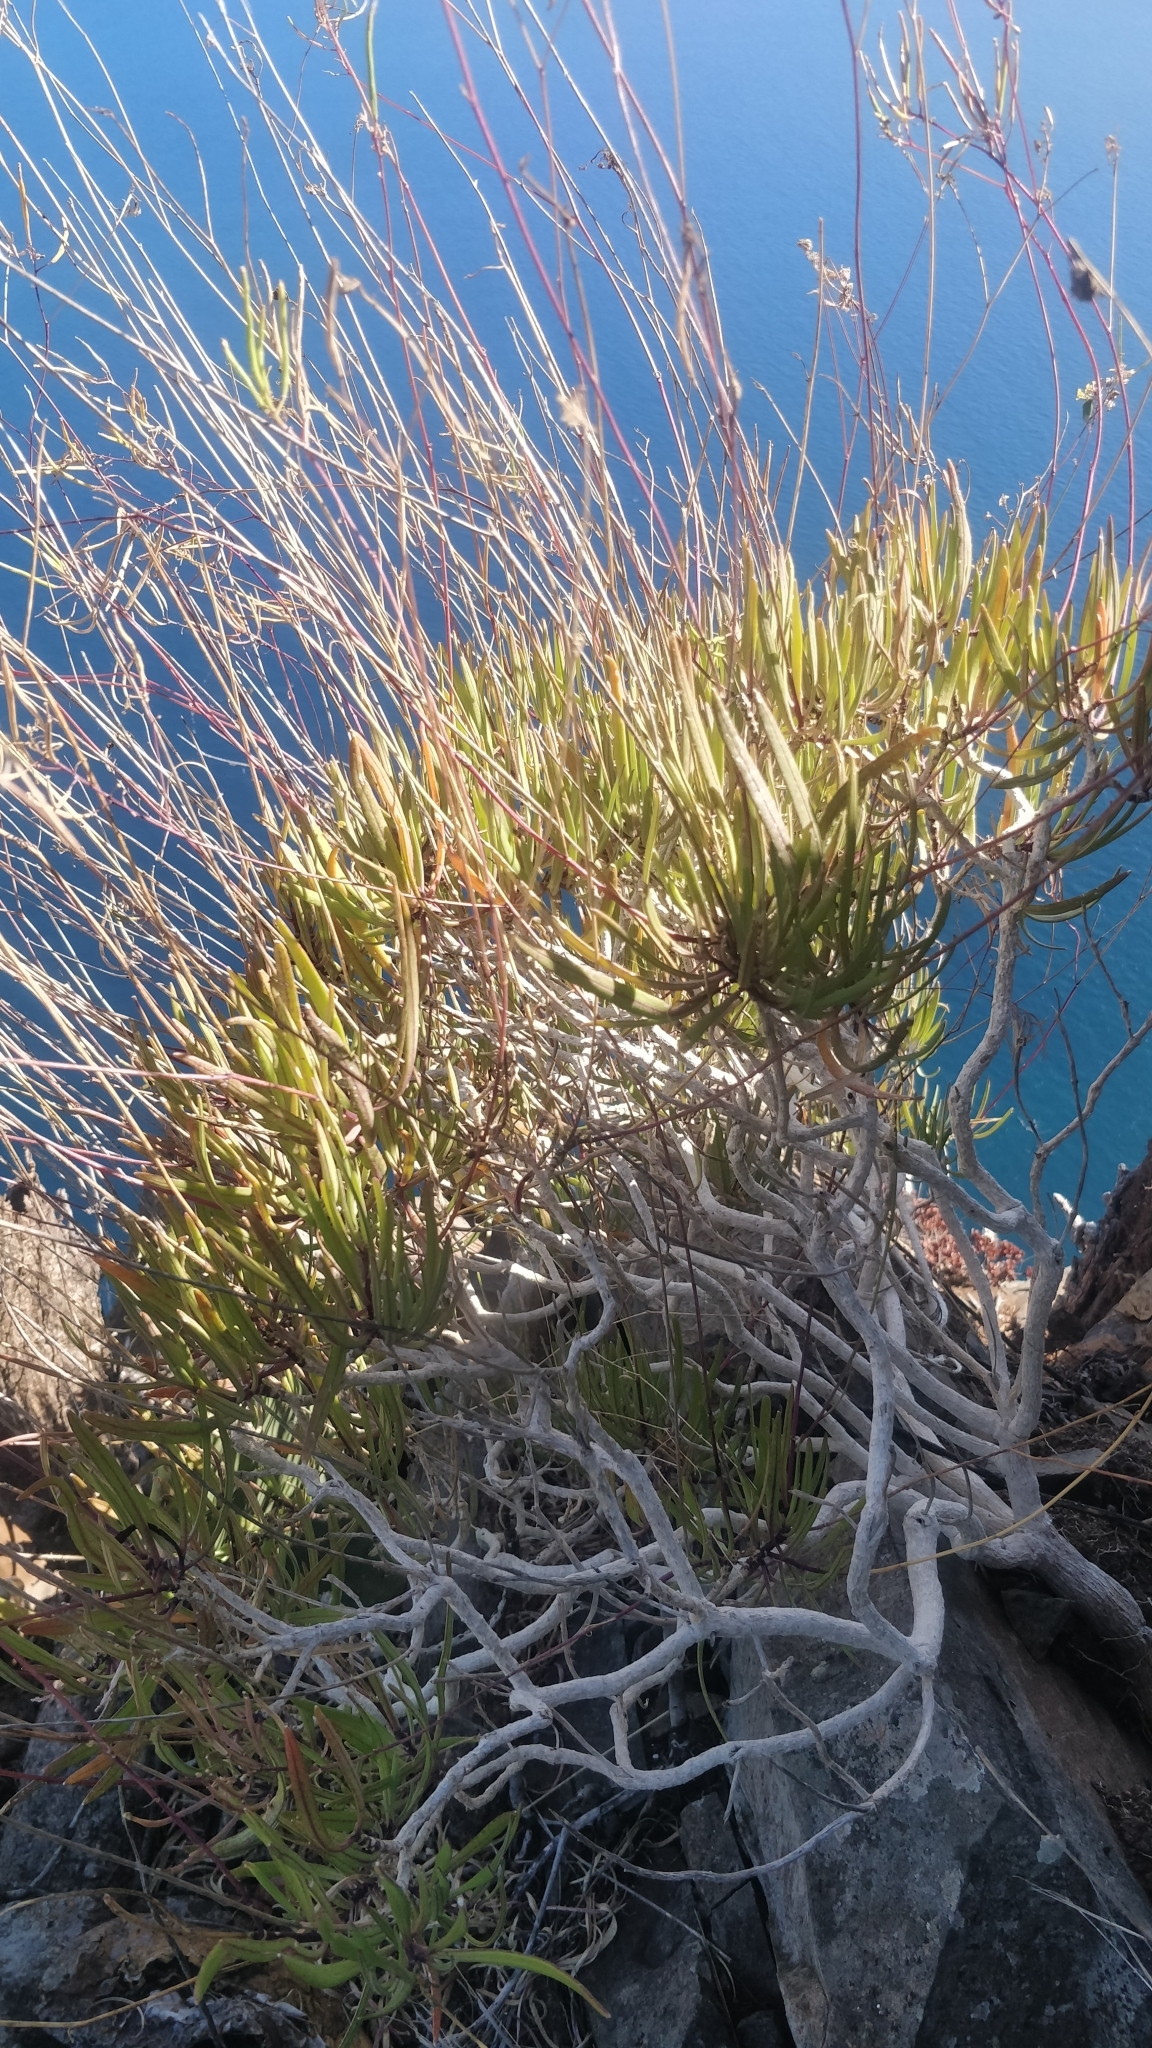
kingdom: Plantae
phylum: Tracheophyta
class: Magnoliopsida
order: Brassicales
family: Brassicaceae
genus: Sinapidendron
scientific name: Sinapidendron angustifolium
